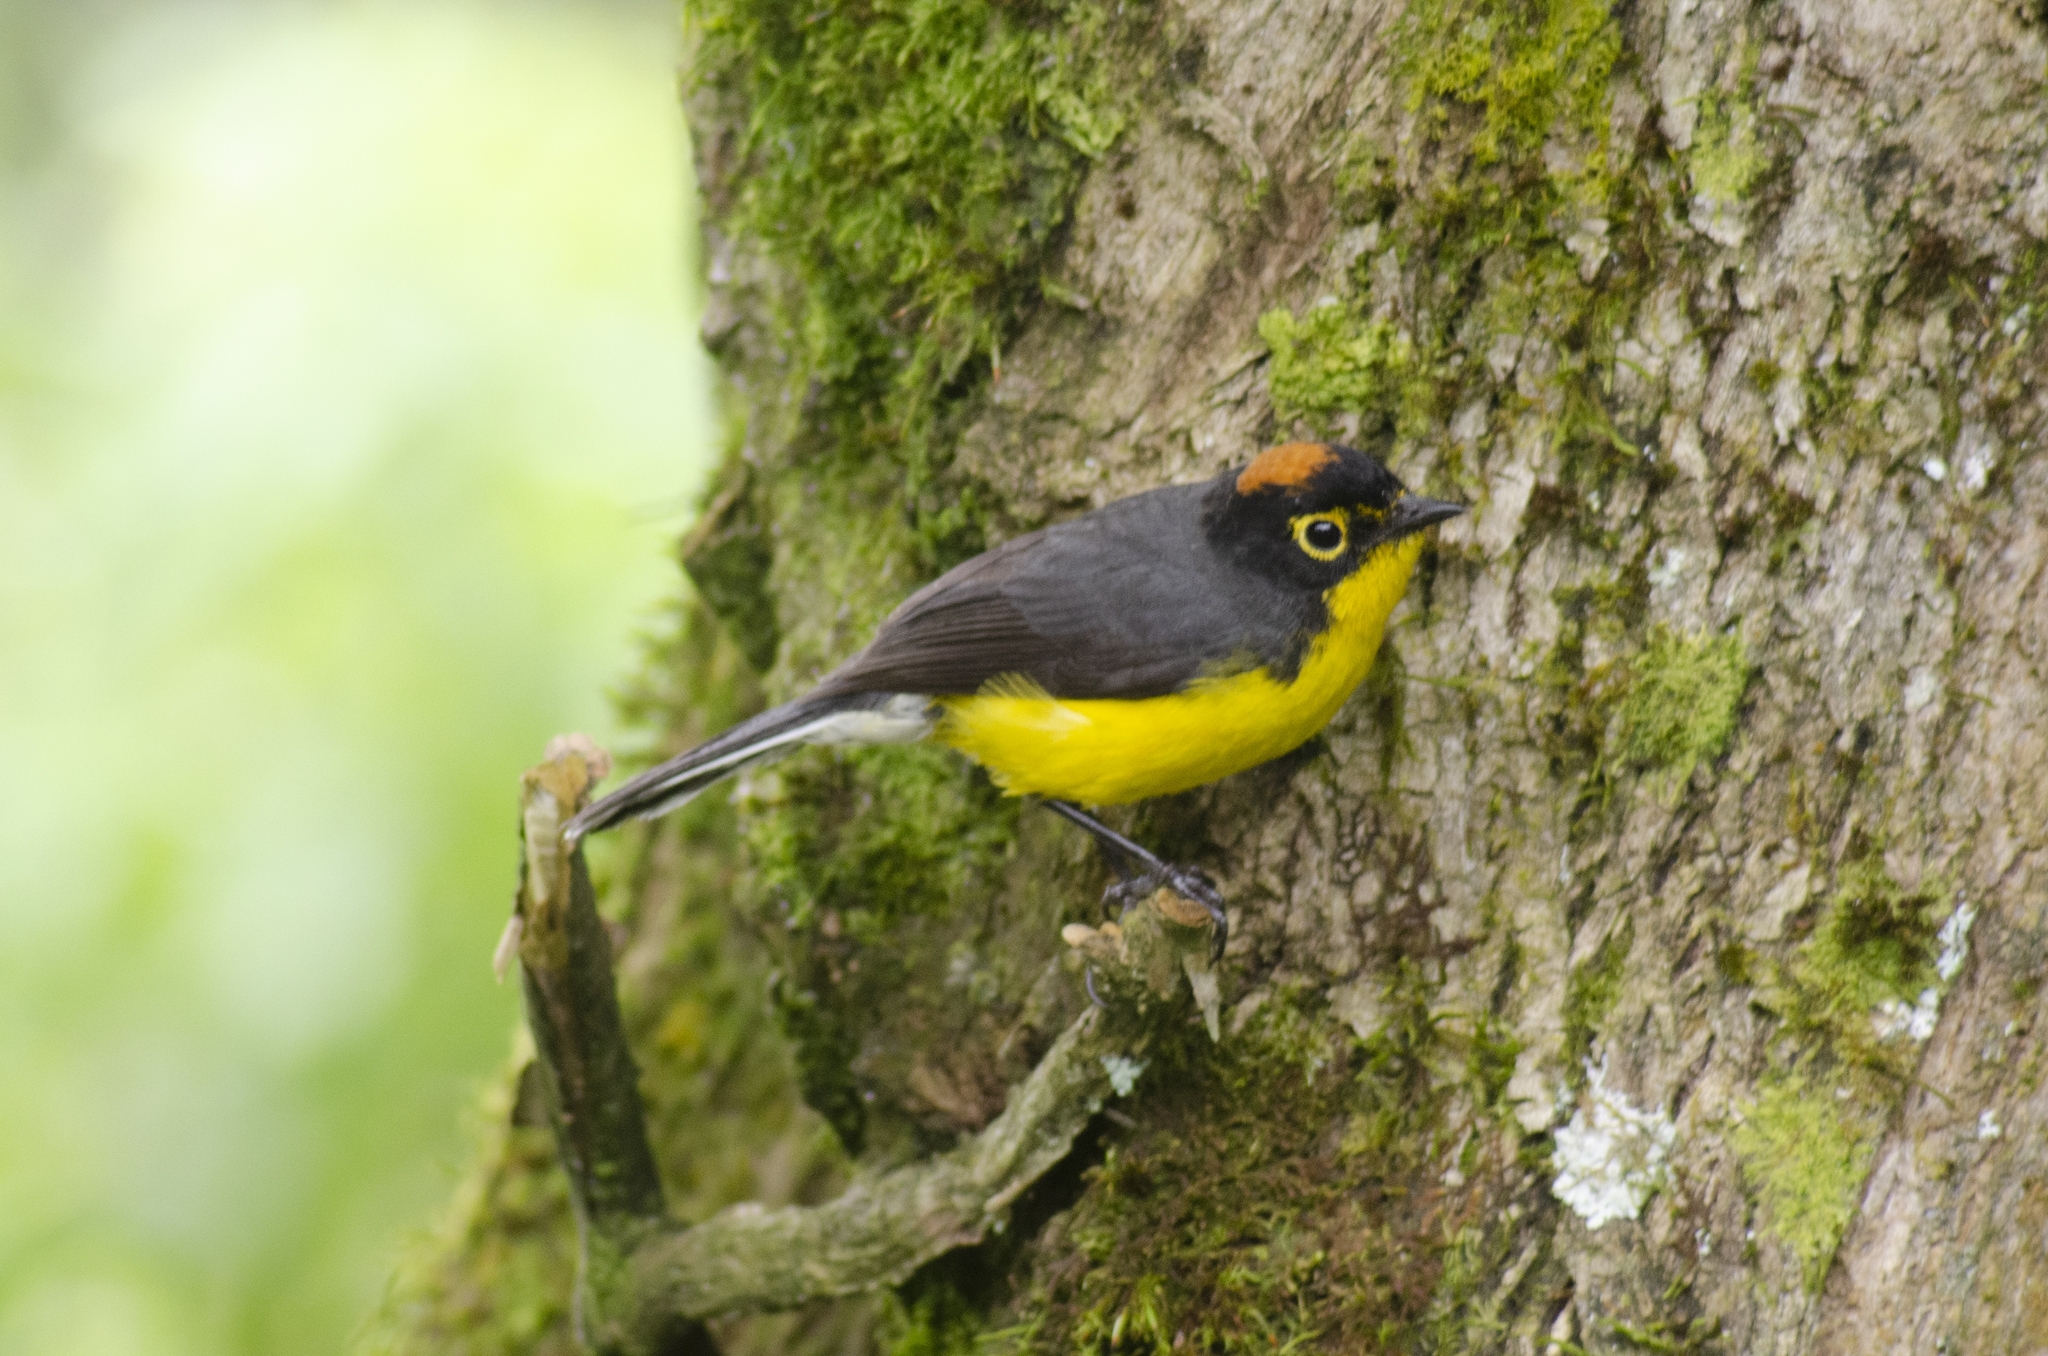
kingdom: Animalia
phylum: Chordata
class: Aves
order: Passeriformes
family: Parulidae
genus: Myioborus
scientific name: Myioborus melanocephalus
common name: Spectacled whitestart
